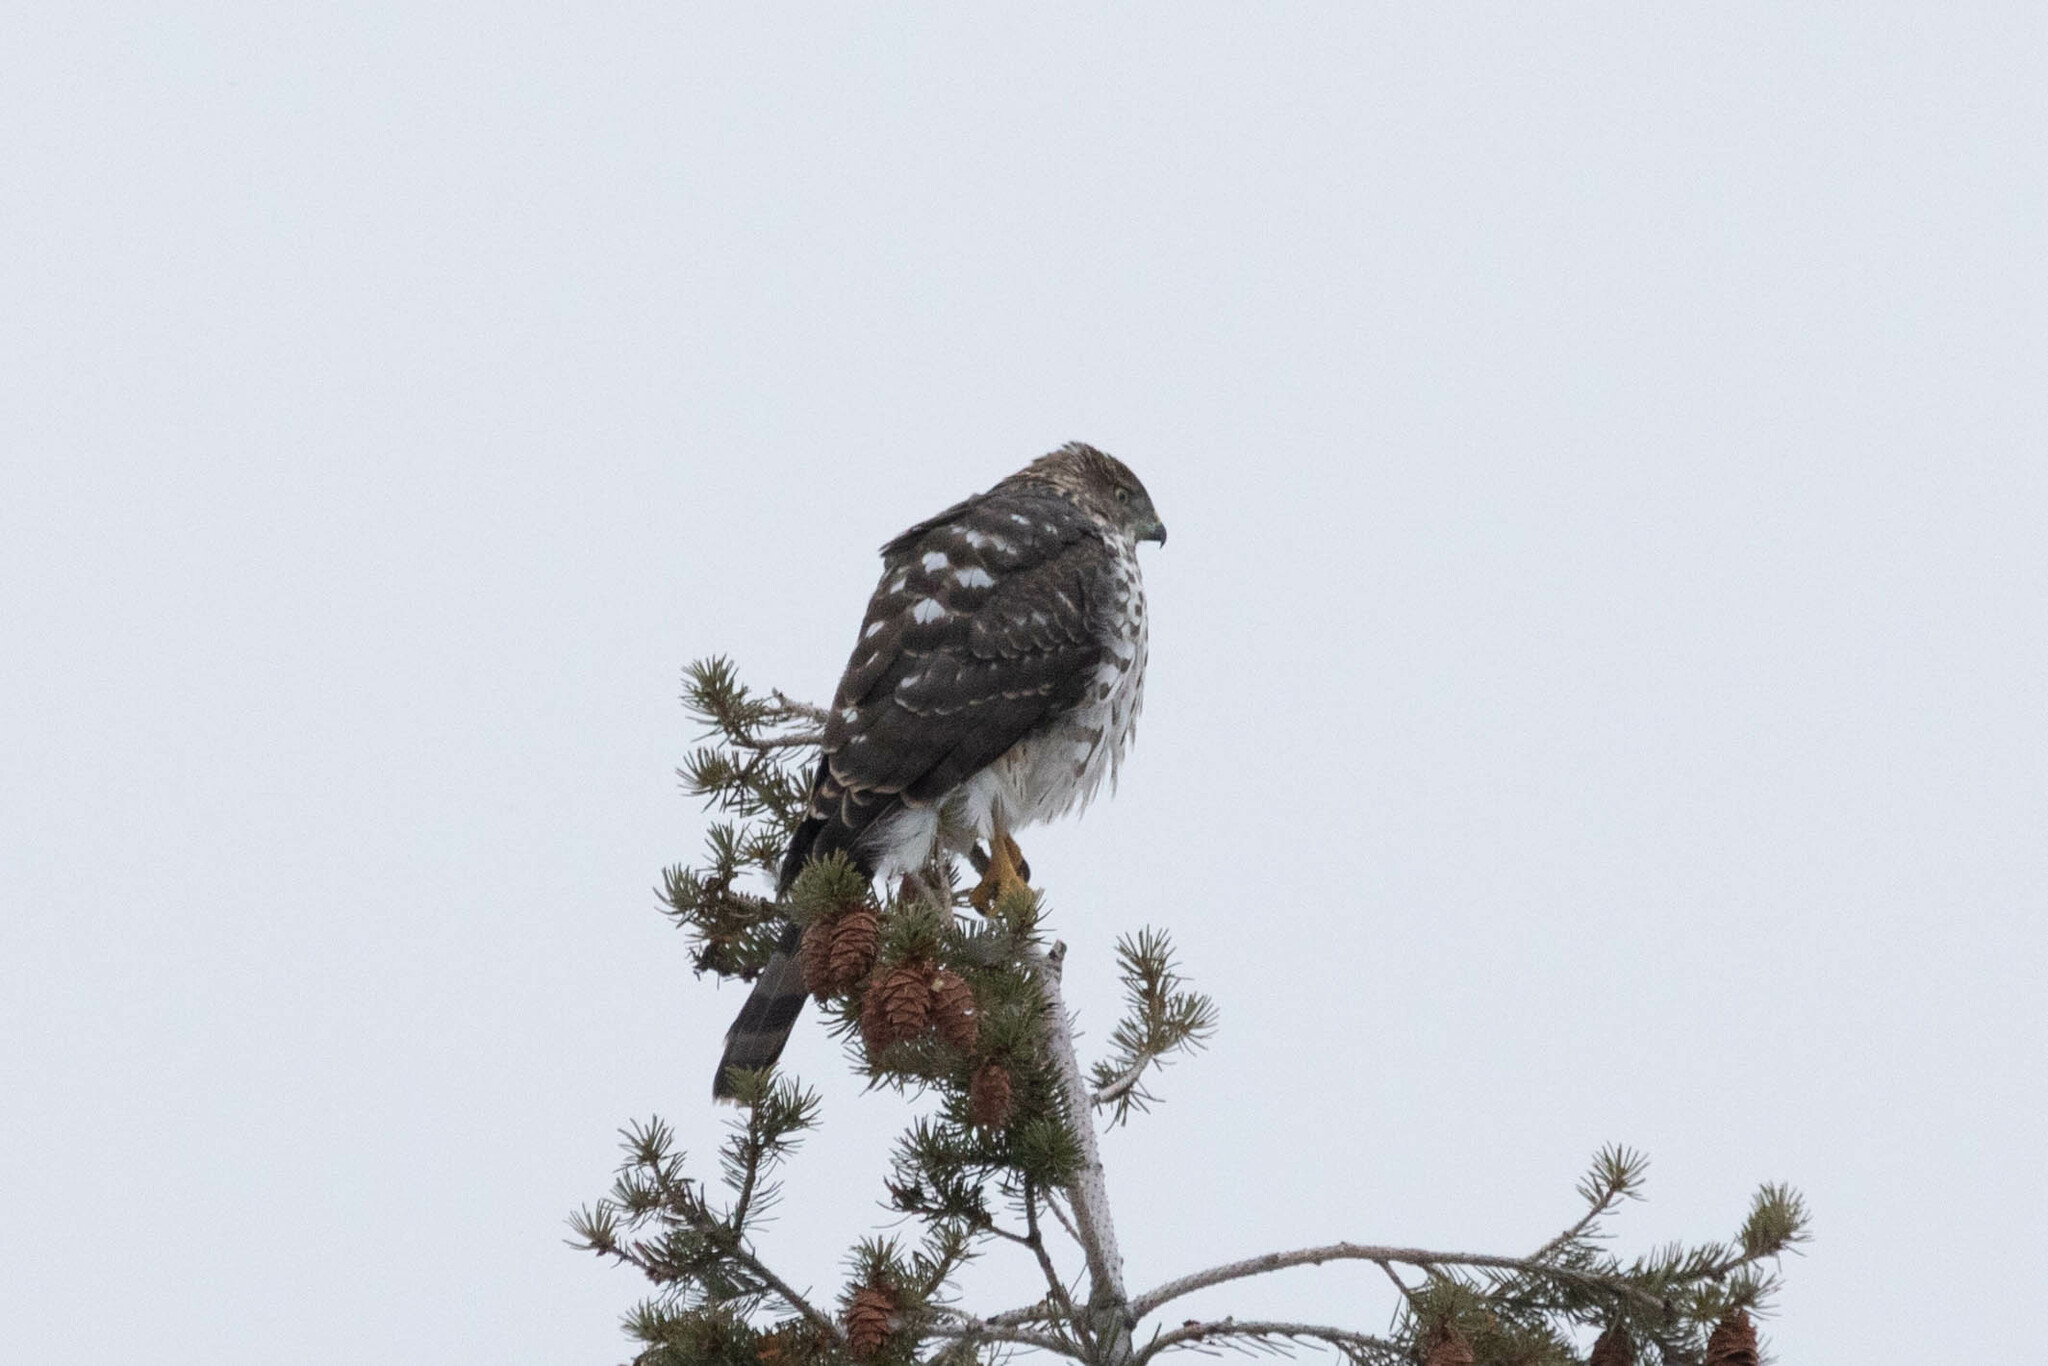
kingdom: Animalia
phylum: Chordata
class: Aves
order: Accipitriformes
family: Accipitridae
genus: Accipiter
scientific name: Accipiter cooperii
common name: Cooper's hawk
